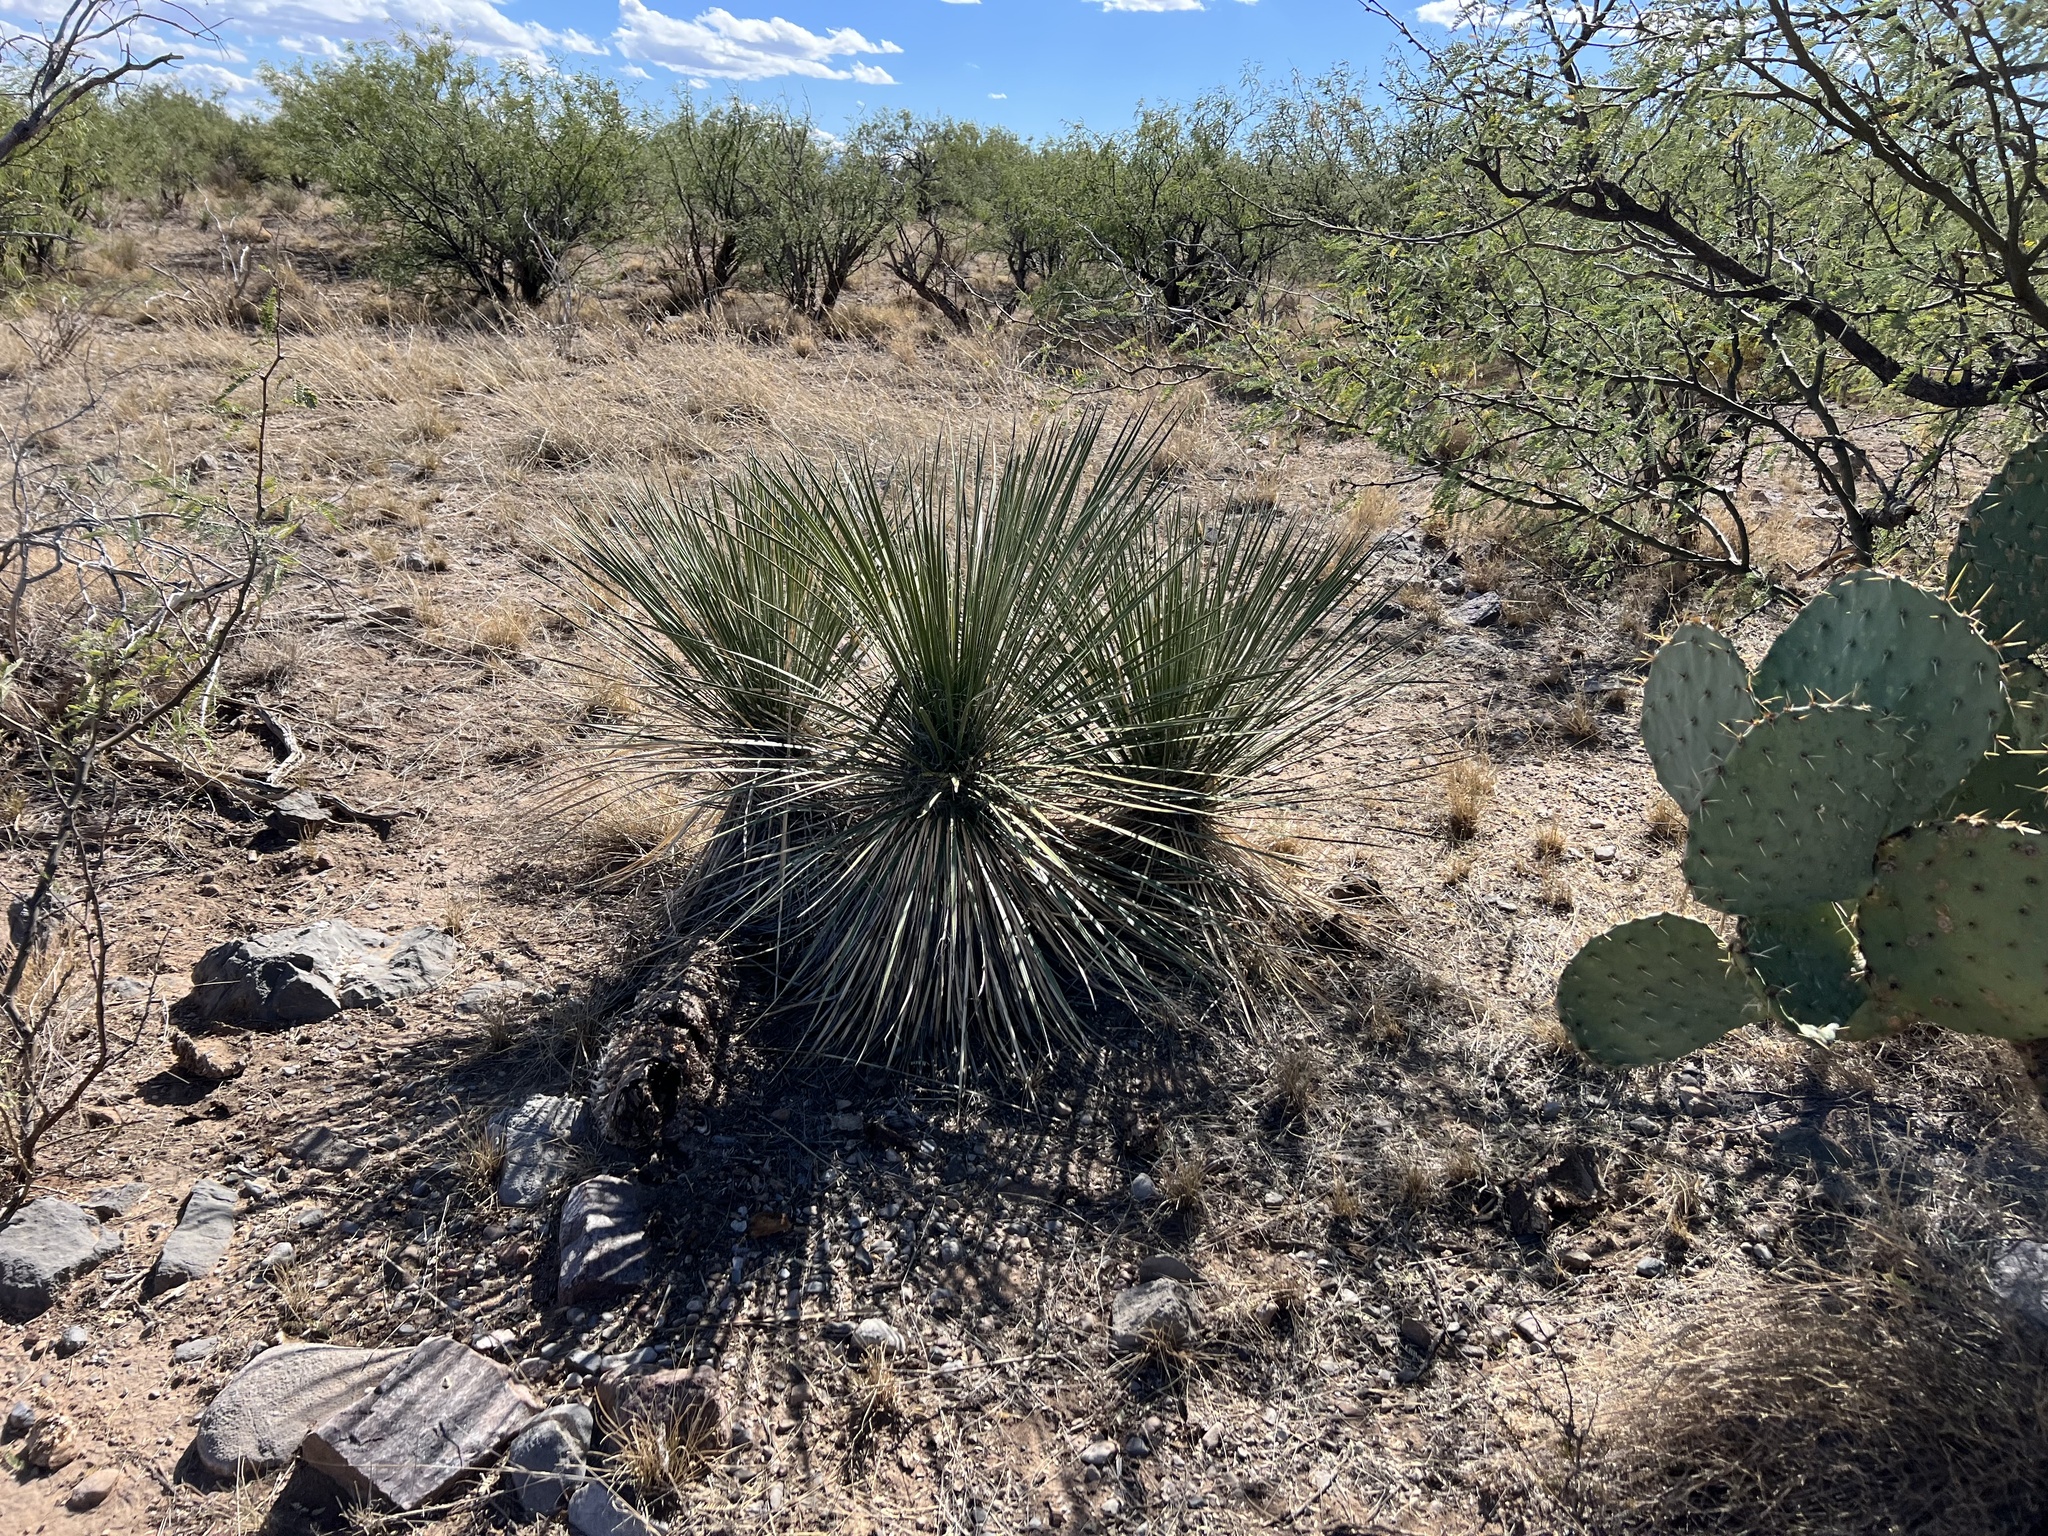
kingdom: Plantae
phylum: Tracheophyta
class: Liliopsida
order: Asparagales
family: Asparagaceae
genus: Yucca
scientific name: Yucca elata
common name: Palmella
